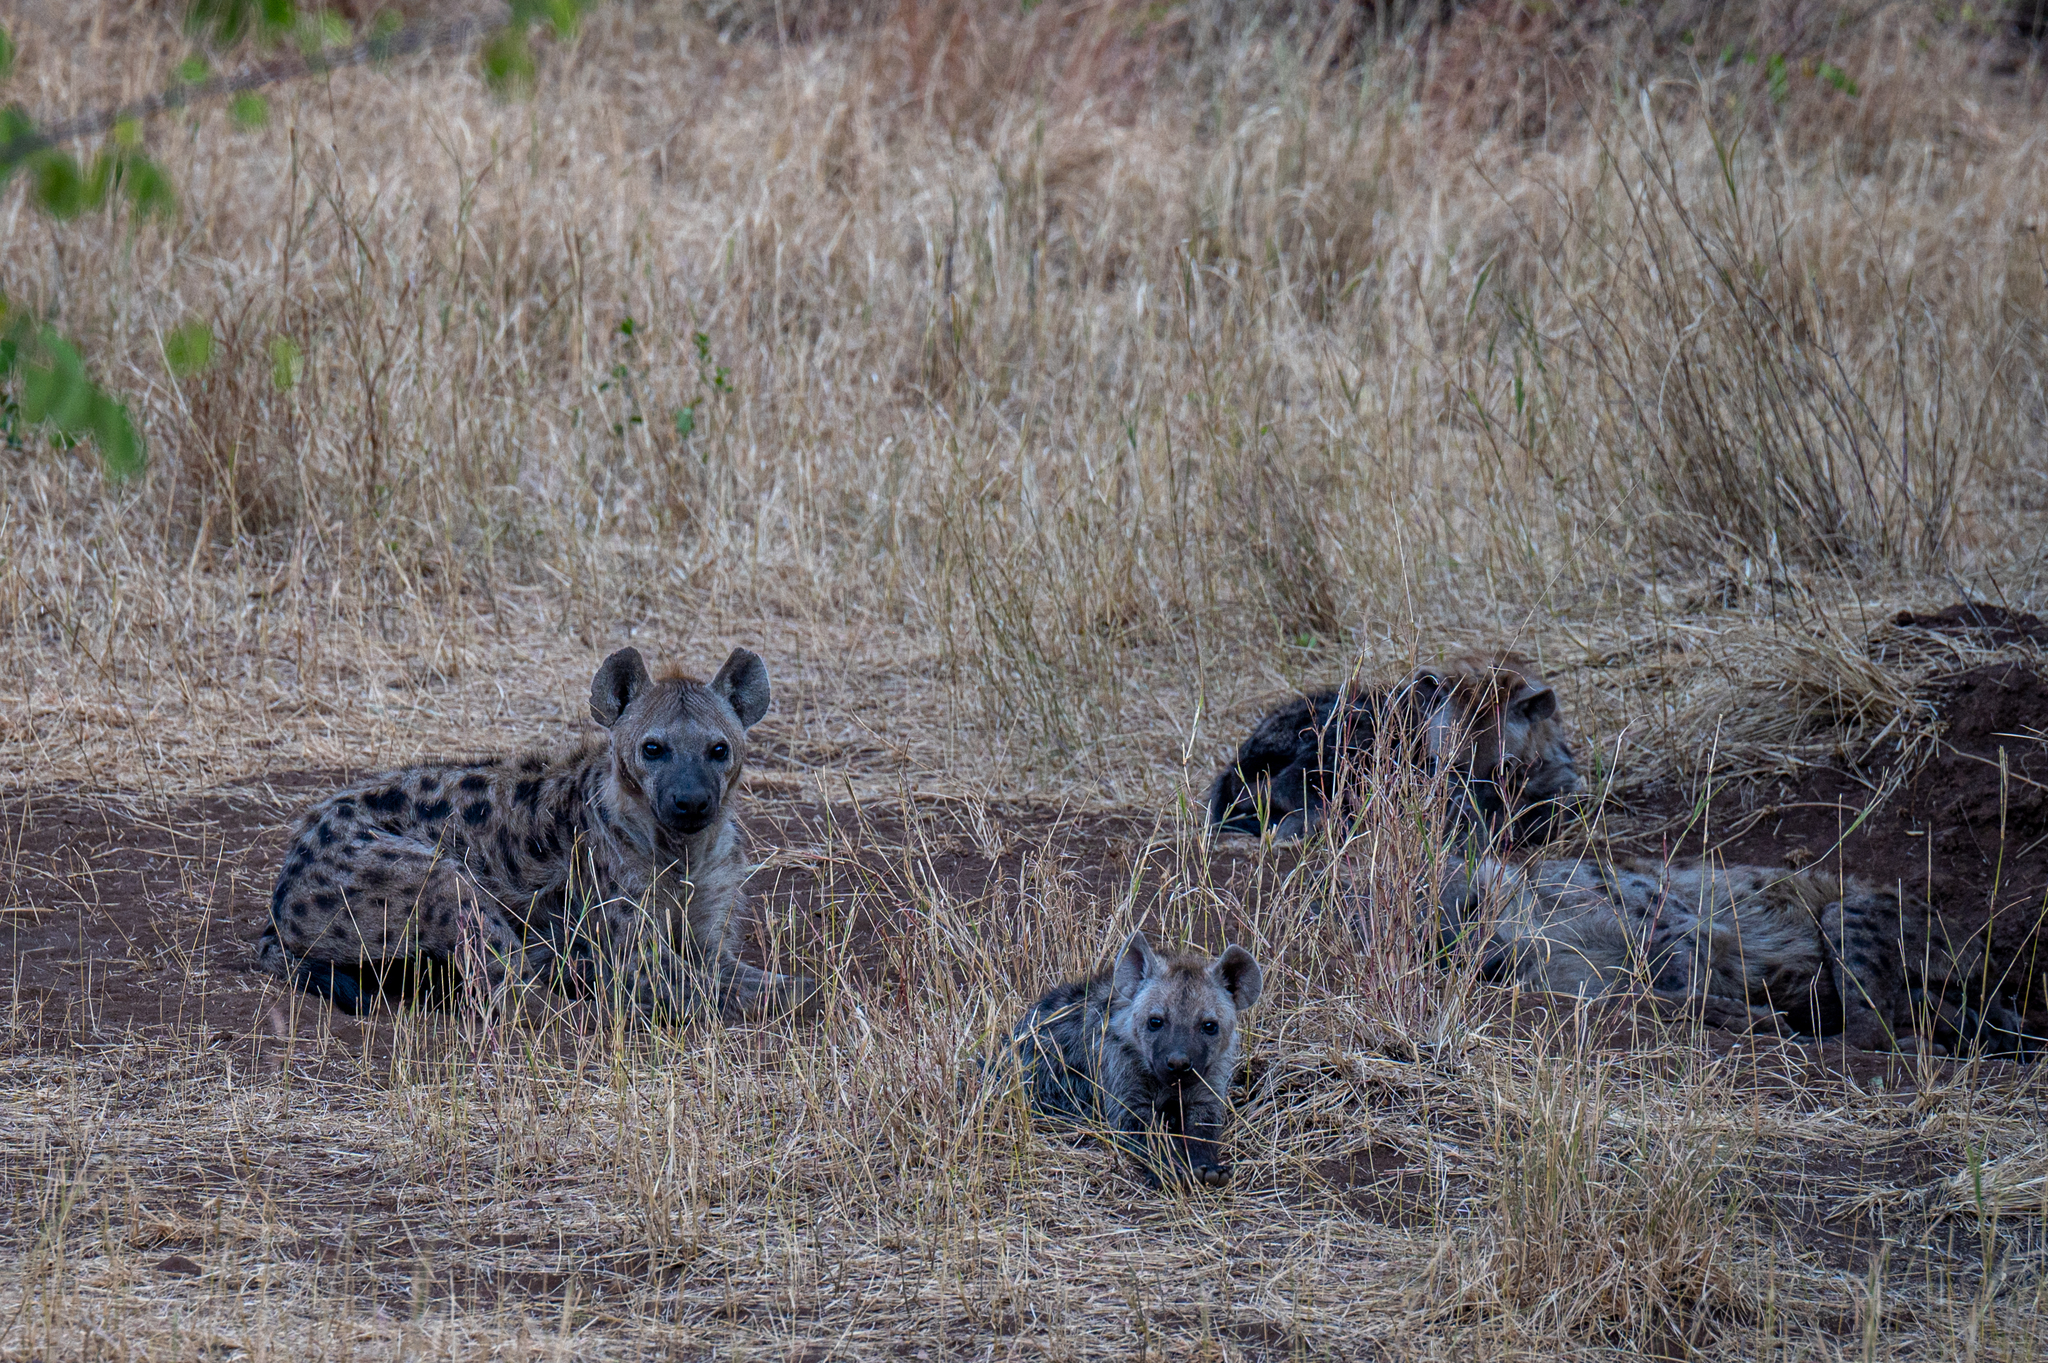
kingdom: Animalia
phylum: Chordata
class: Mammalia
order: Carnivora
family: Hyaenidae
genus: Crocuta
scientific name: Crocuta crocuta
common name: Spotted hyaena
